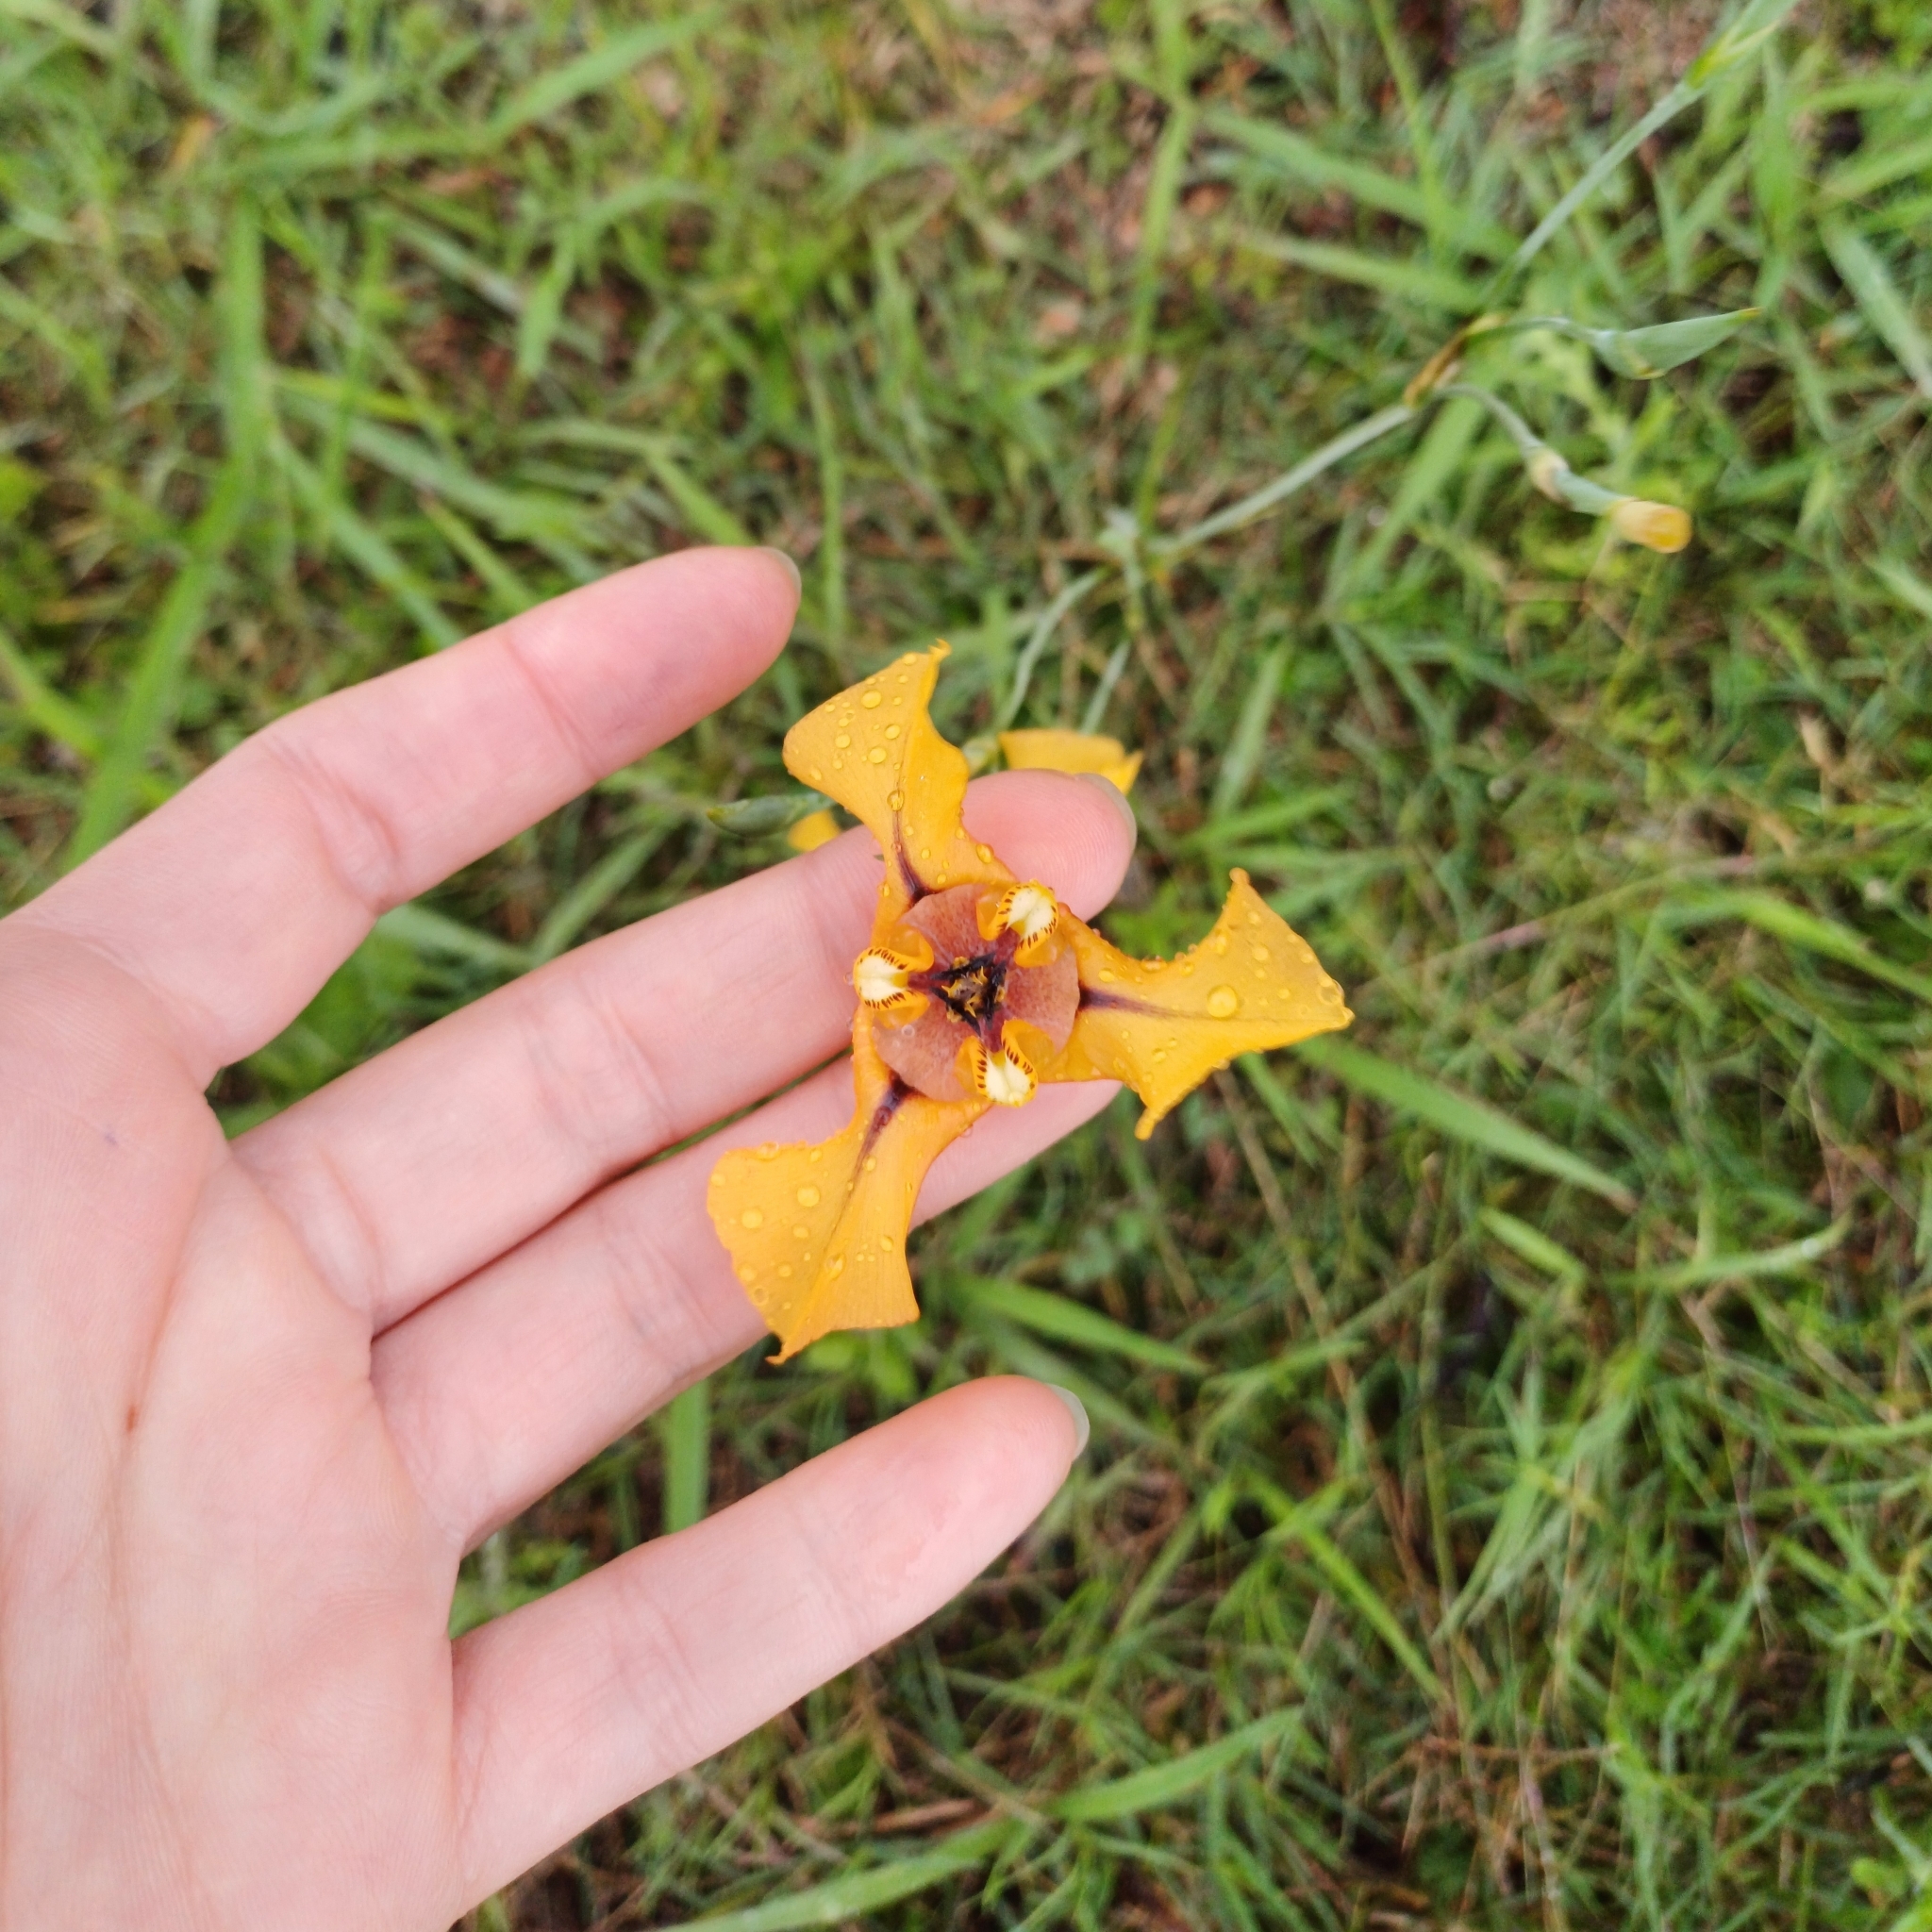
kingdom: Plantae
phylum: Tracheophyta
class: Liliopsida
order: Asparagales
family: Iridaceae
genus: Cypella
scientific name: Cypella herbertii
